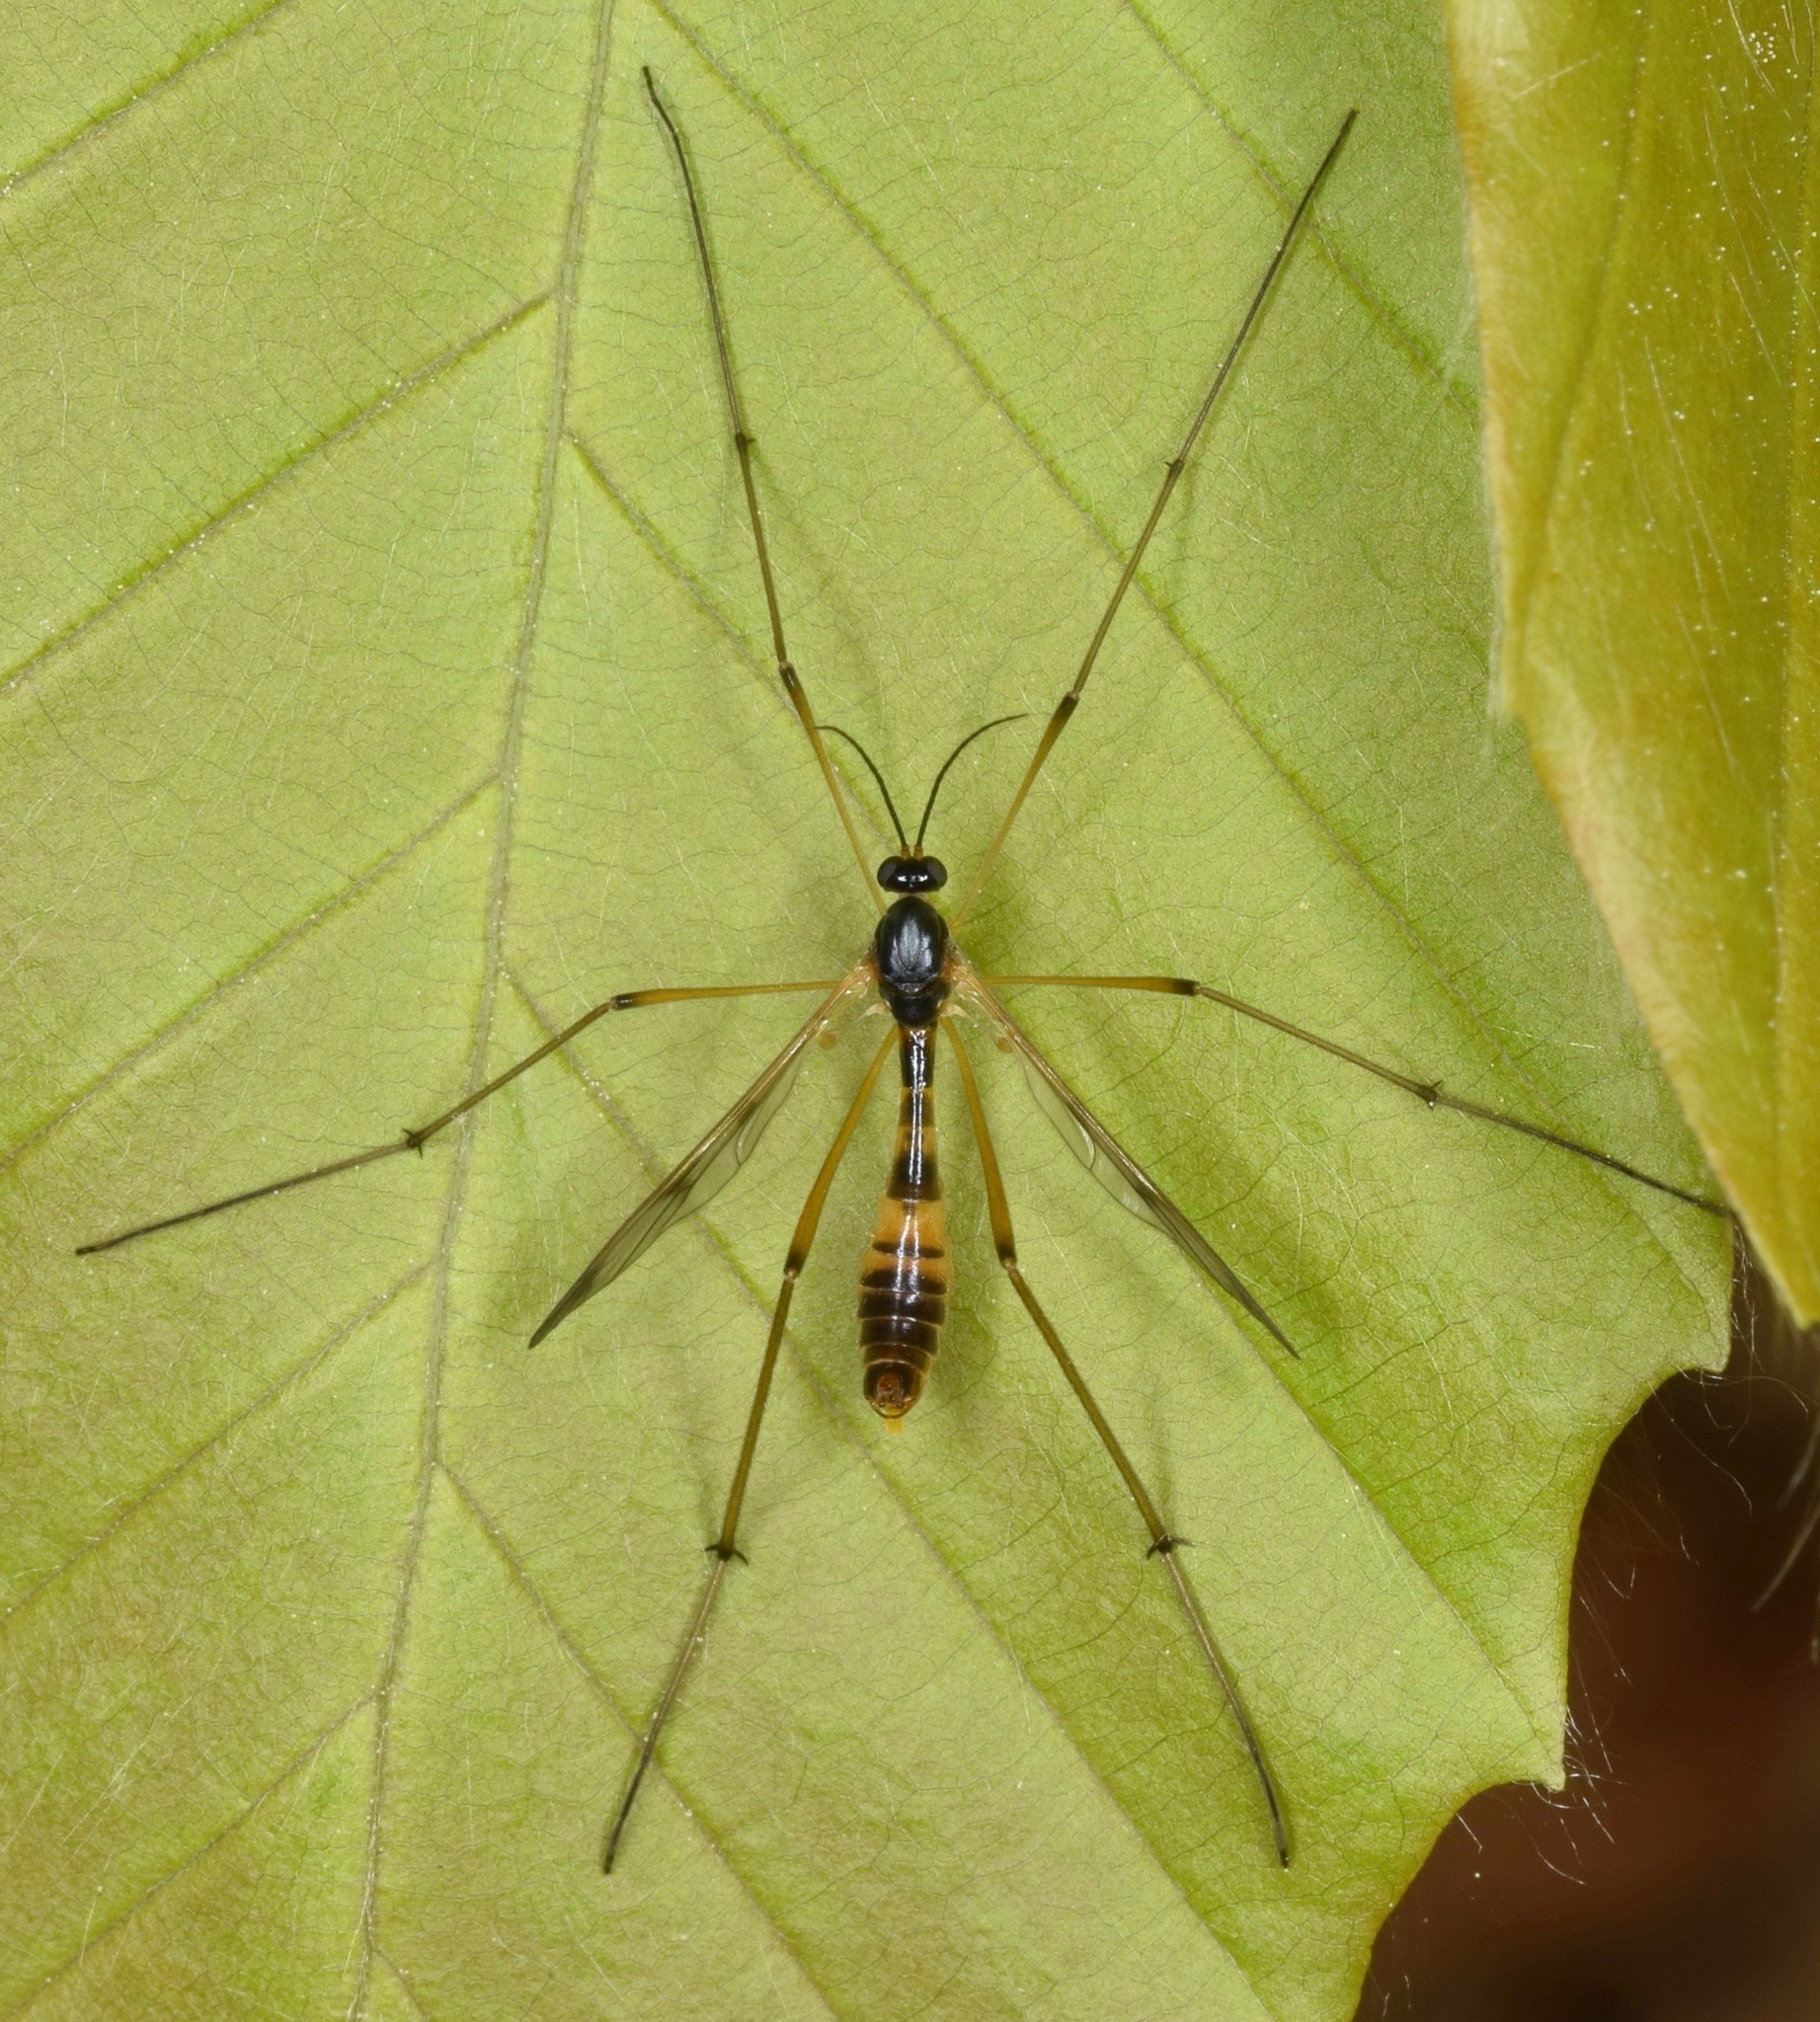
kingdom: Animalia
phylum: Arthropoda
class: Insecta
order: Diptera
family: Ptychopteridae
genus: Ptychoptera
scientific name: Ptychoptera
